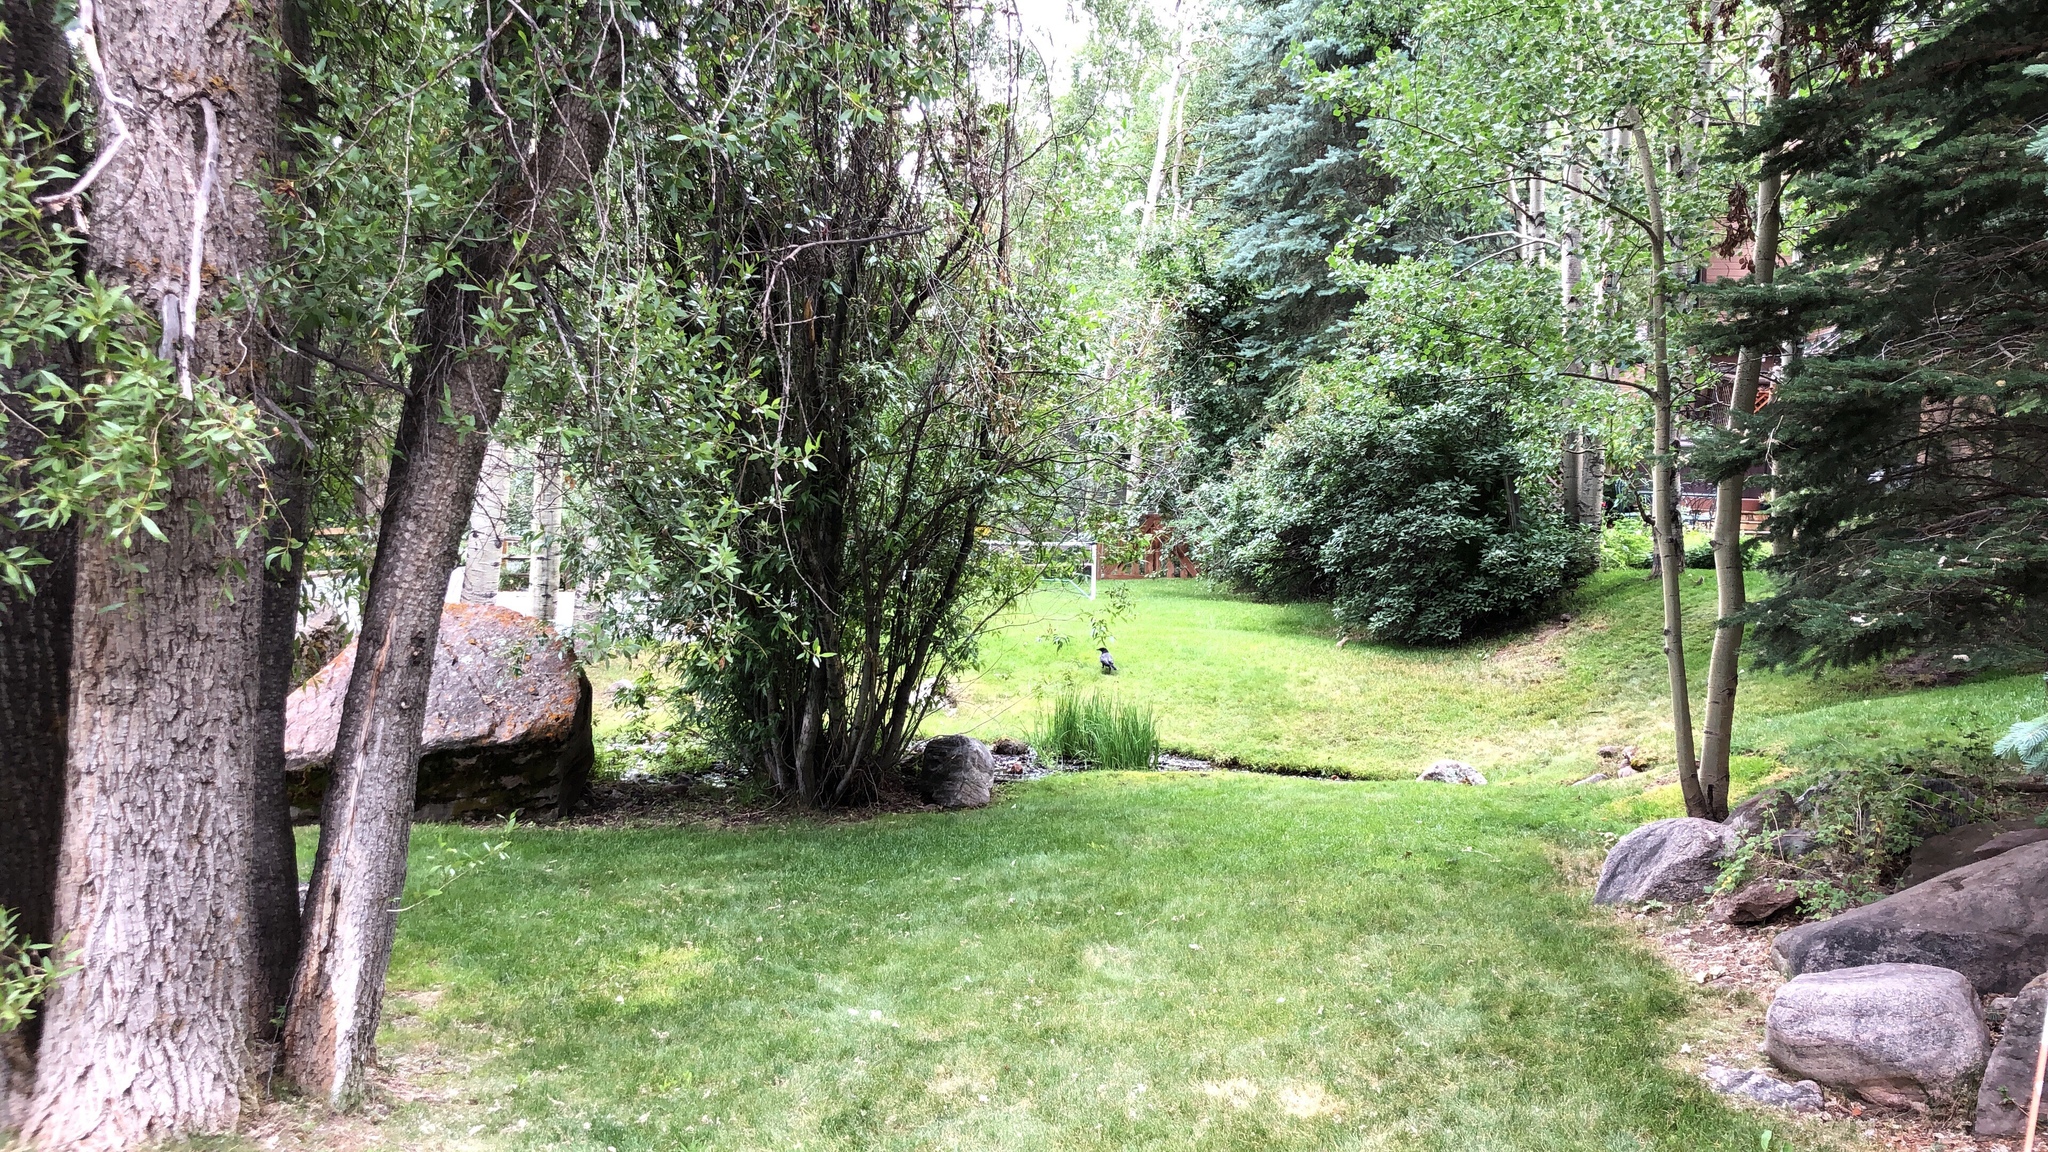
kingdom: Animalia
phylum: Chordata
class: Aves
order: Passeriformes
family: Corvidae
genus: Corvus
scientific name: Corvus brachyrhynchos
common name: American crow
